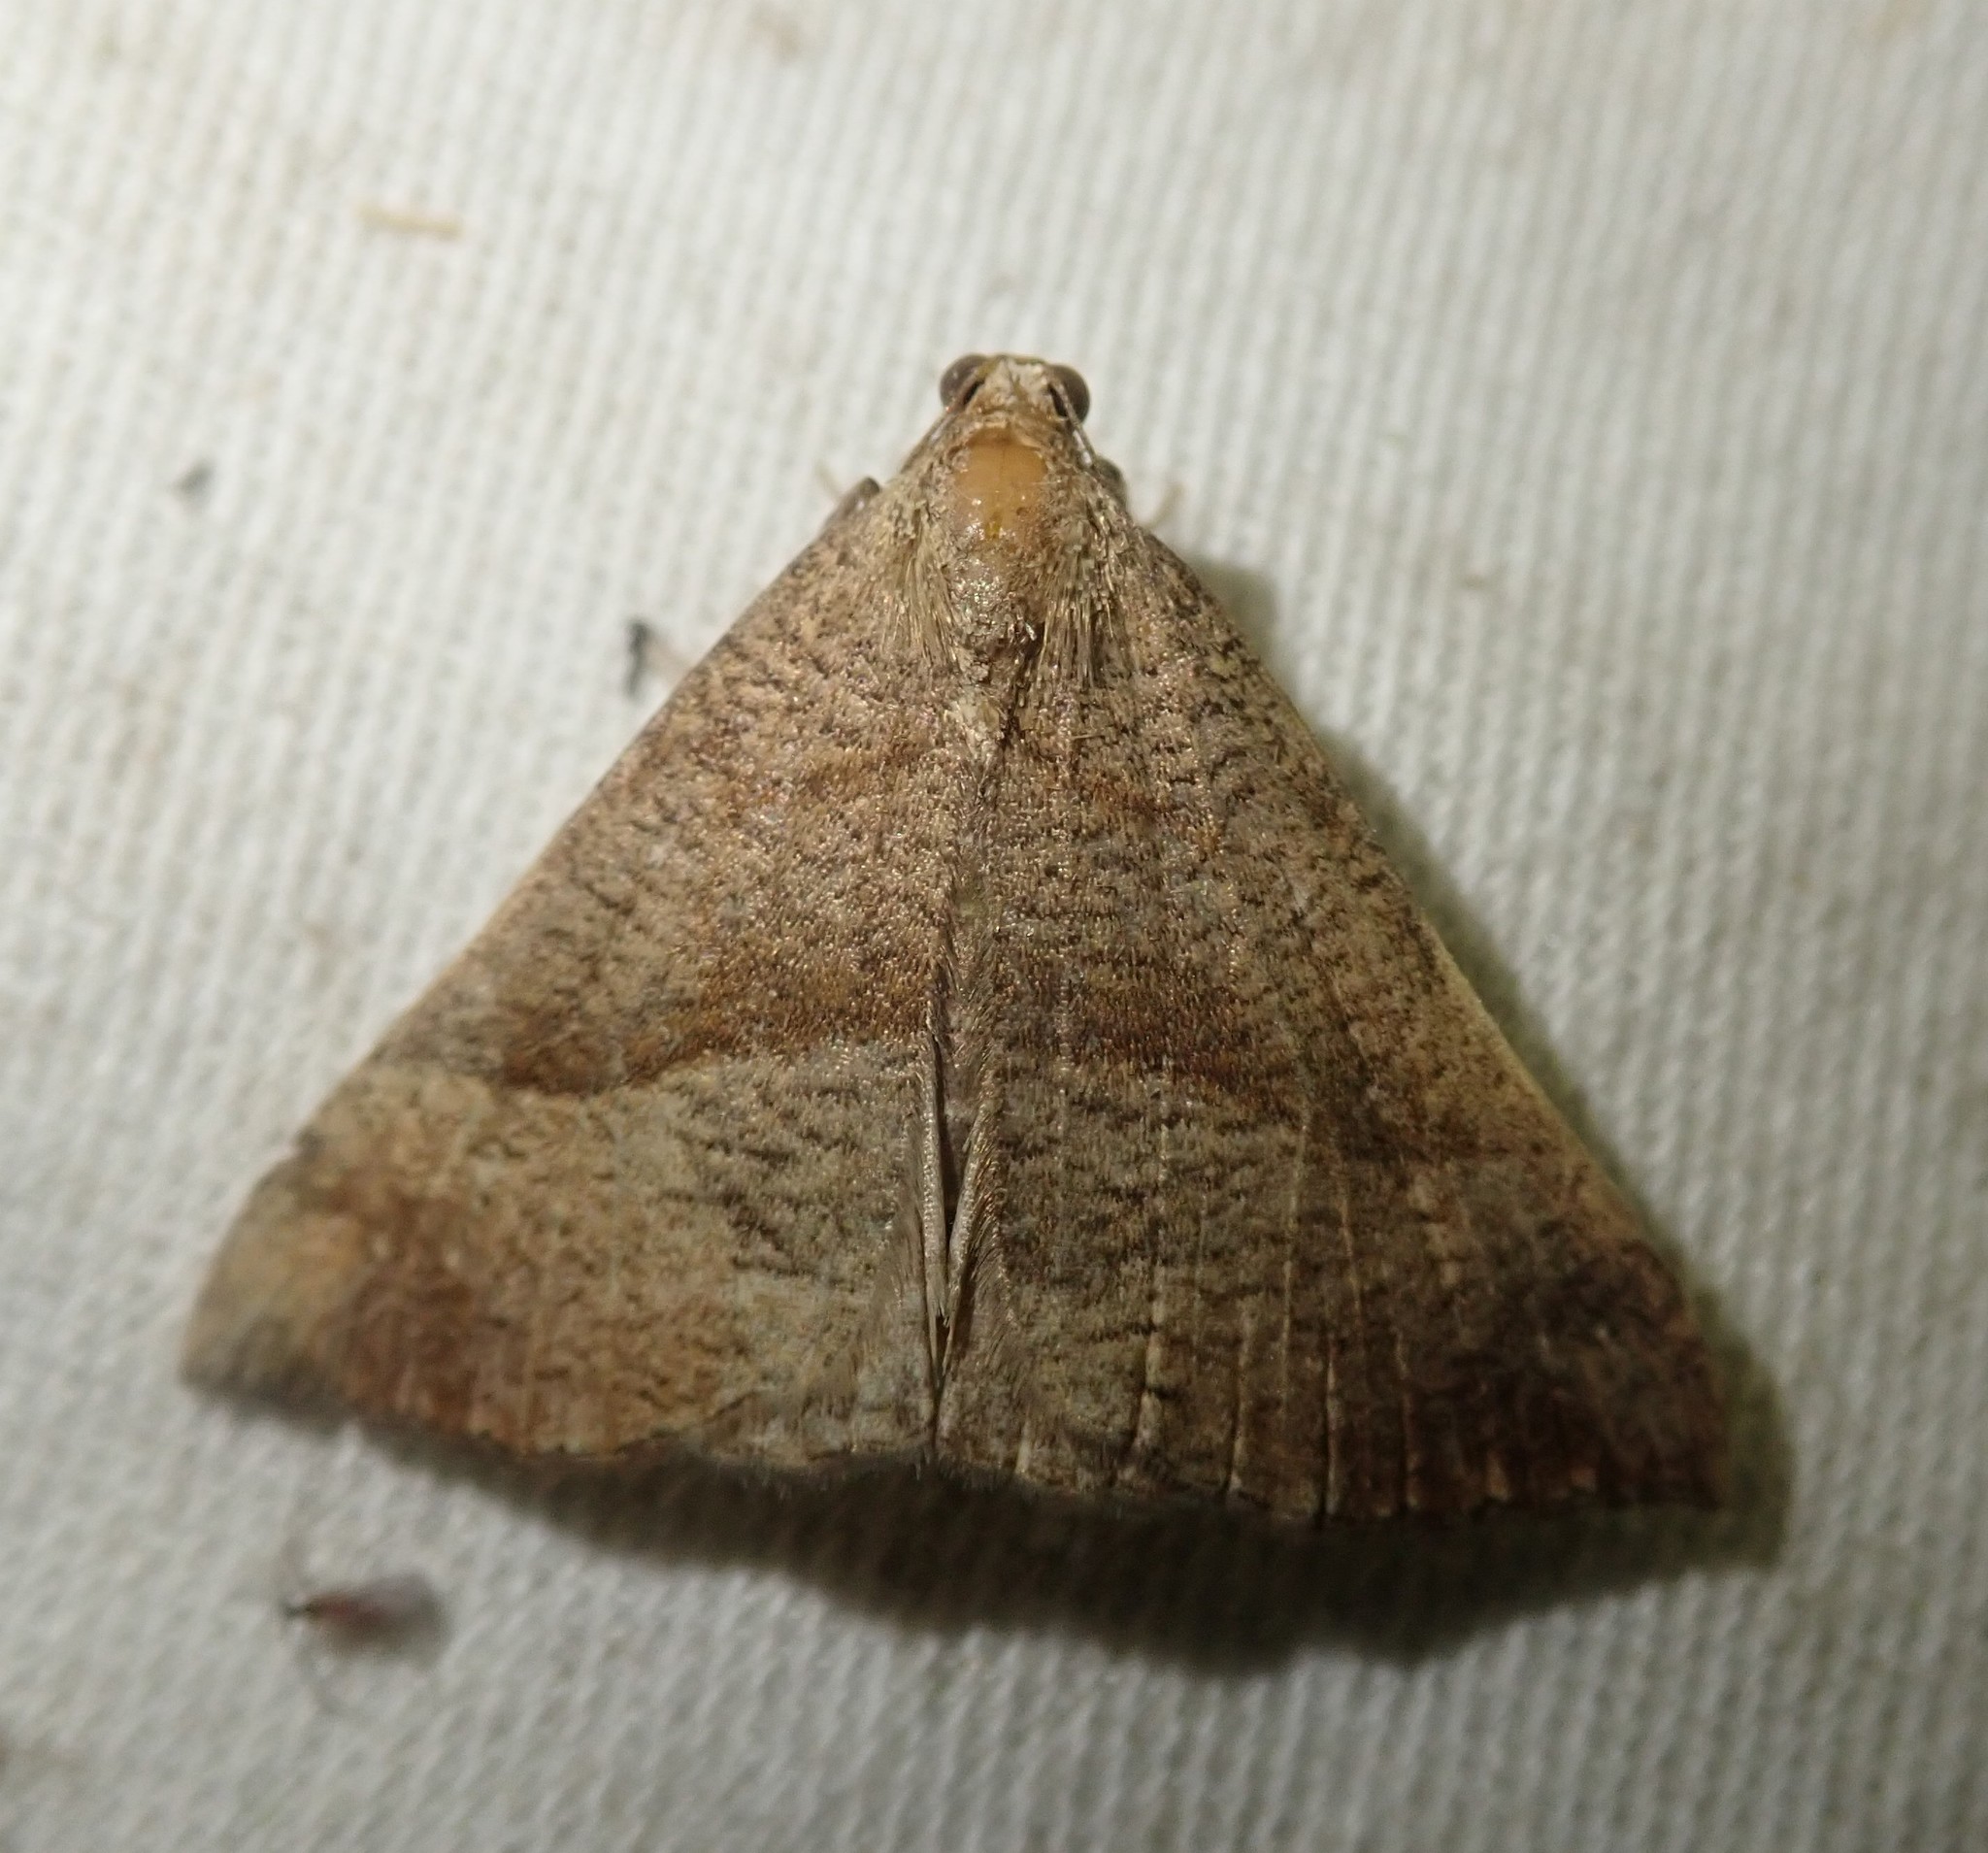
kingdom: Animalia
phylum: Arthropoda
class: Insecta
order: Lepidoptera
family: Erebidae
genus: Hypena
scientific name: Hypena proboscidalis
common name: Snout
